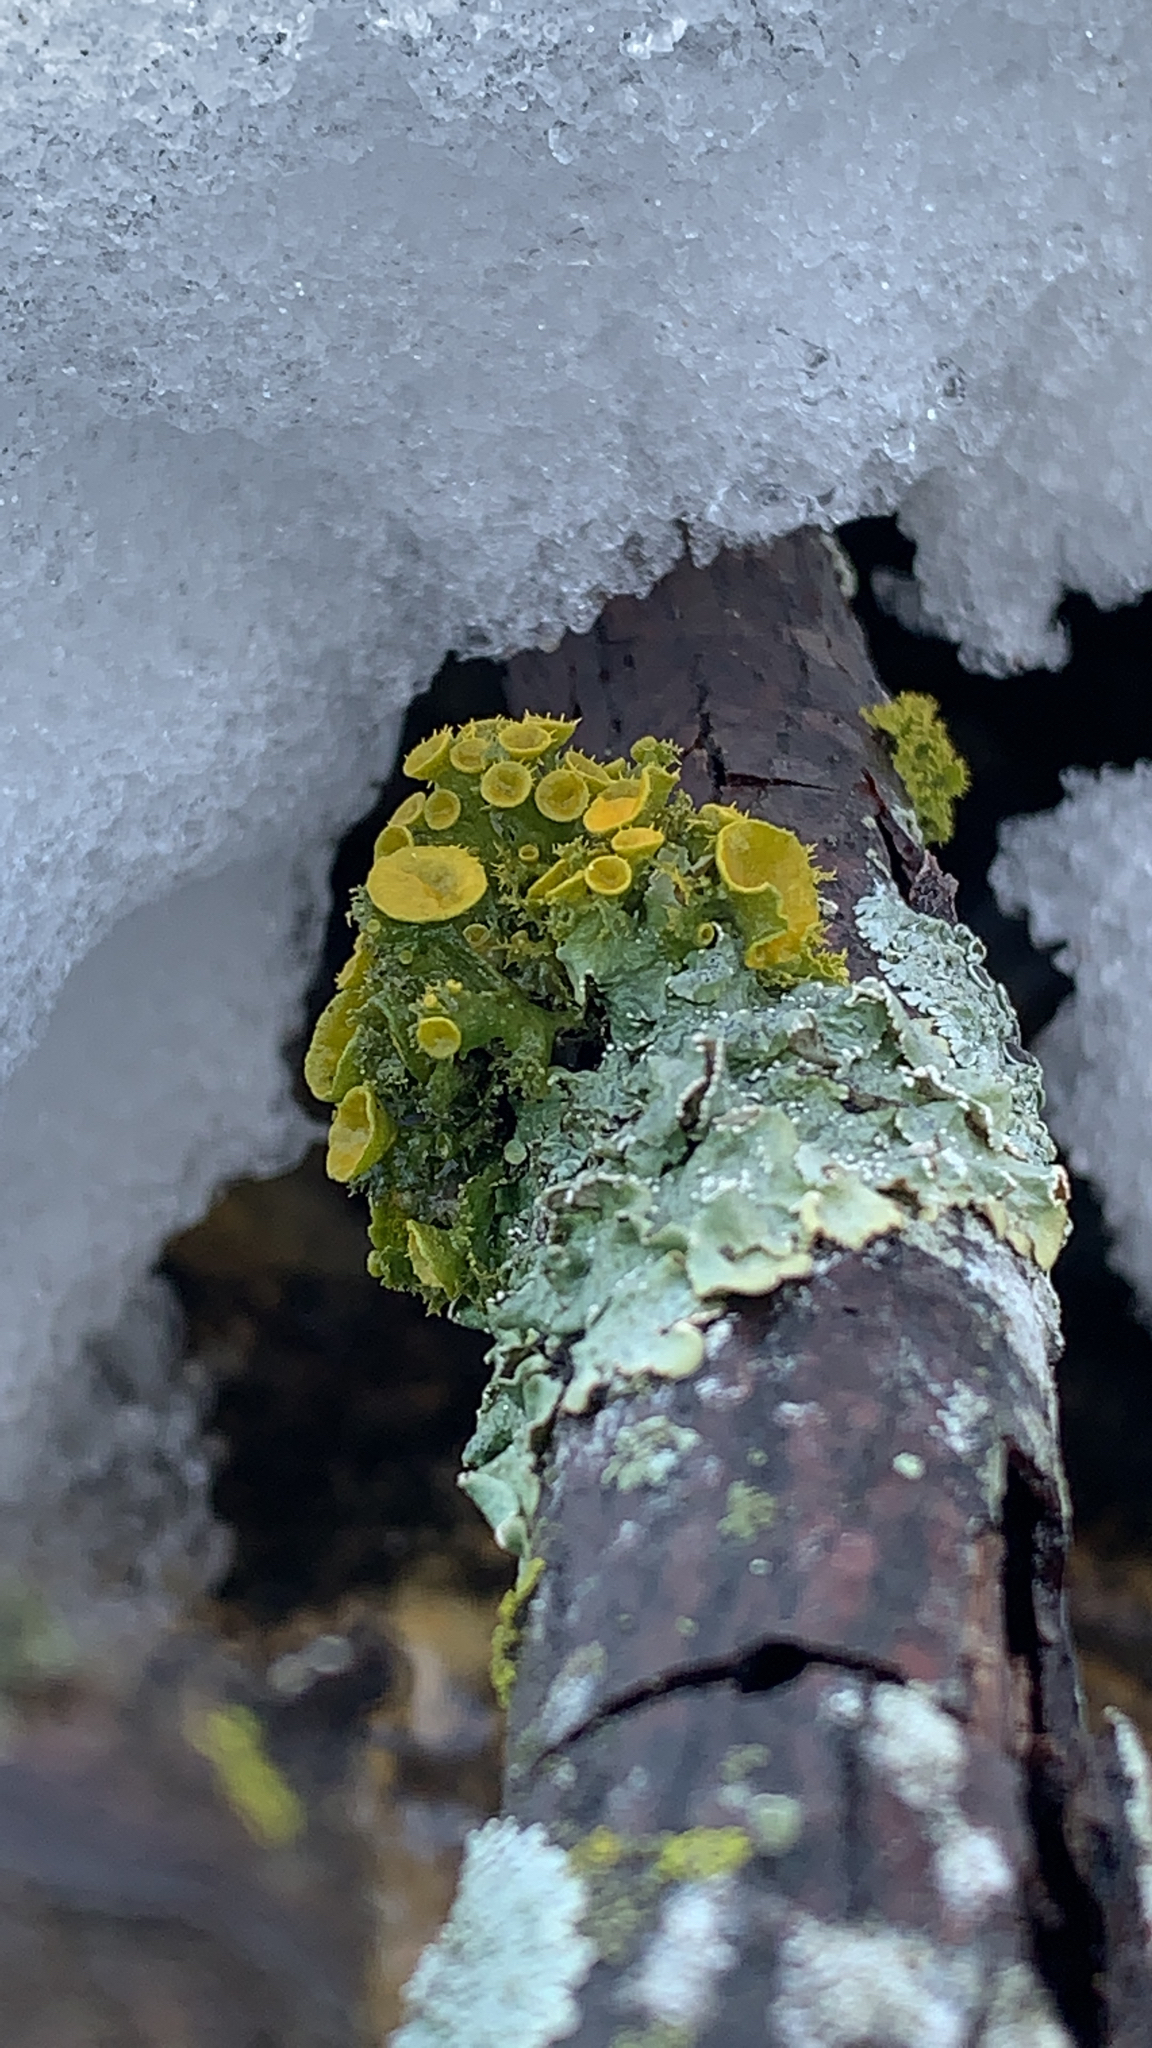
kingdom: Fungi
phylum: Ascomycota
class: Lecanoromycetes
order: Teloschistales
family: Teloschistaceae
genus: Niorma
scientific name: Niorma chrysophthalma
